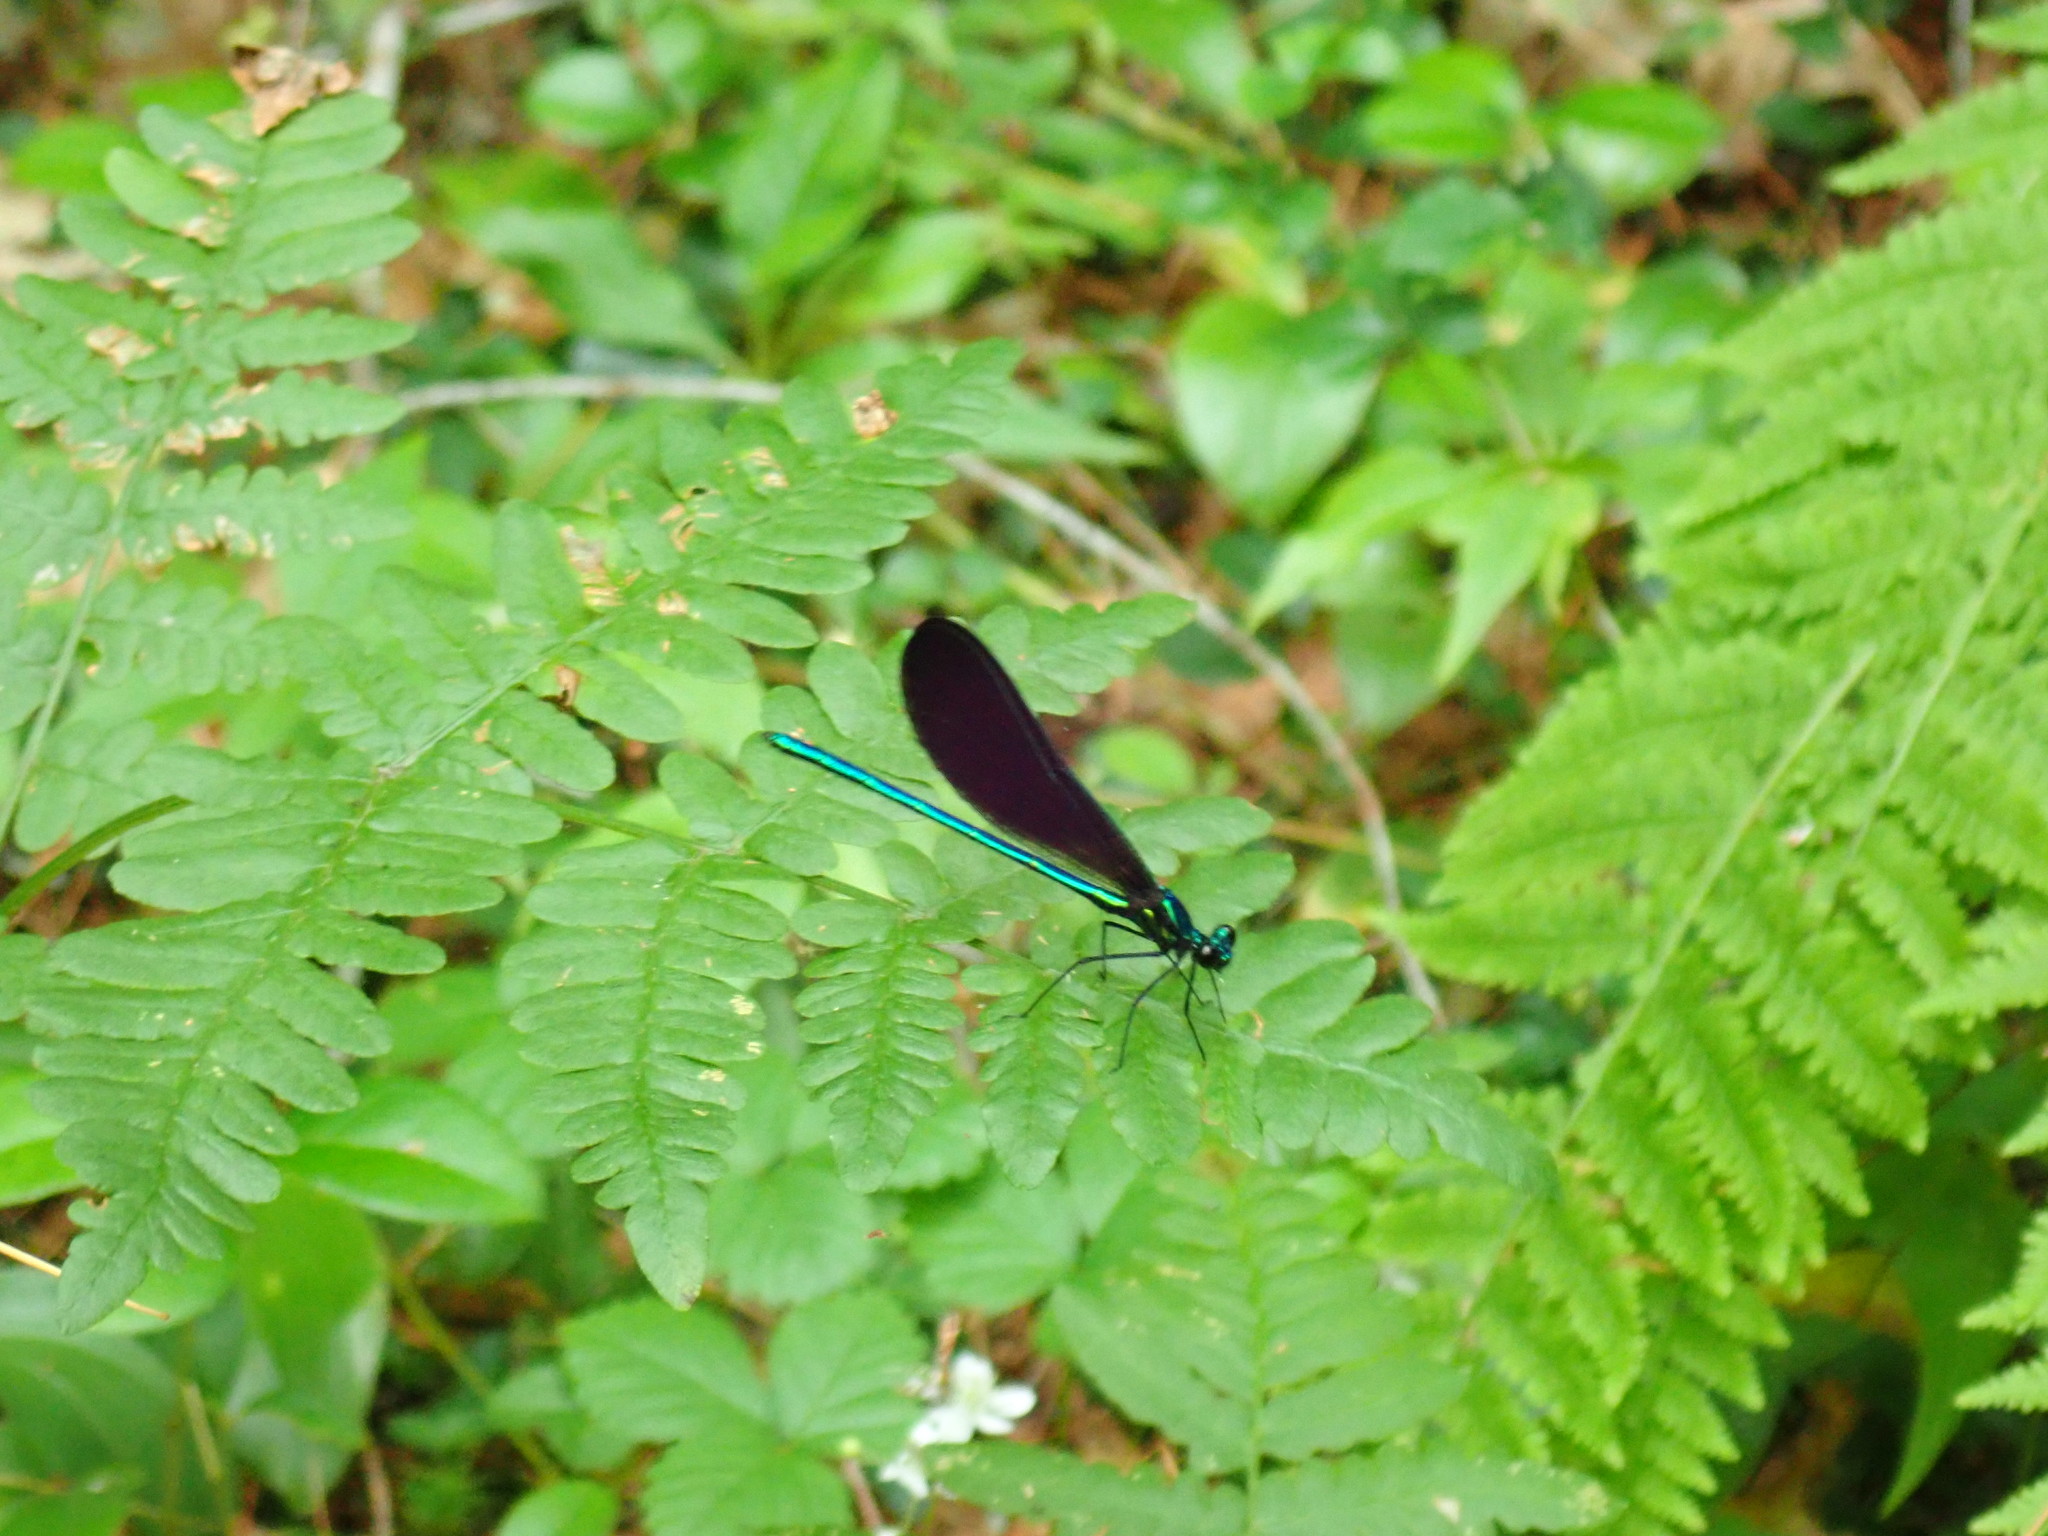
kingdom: Animalia
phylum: Arthropoda
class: Insecta
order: Odonata
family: Calopterygidae
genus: Calopteryx
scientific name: Calopteryx maculata
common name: Ebony jewelwing
